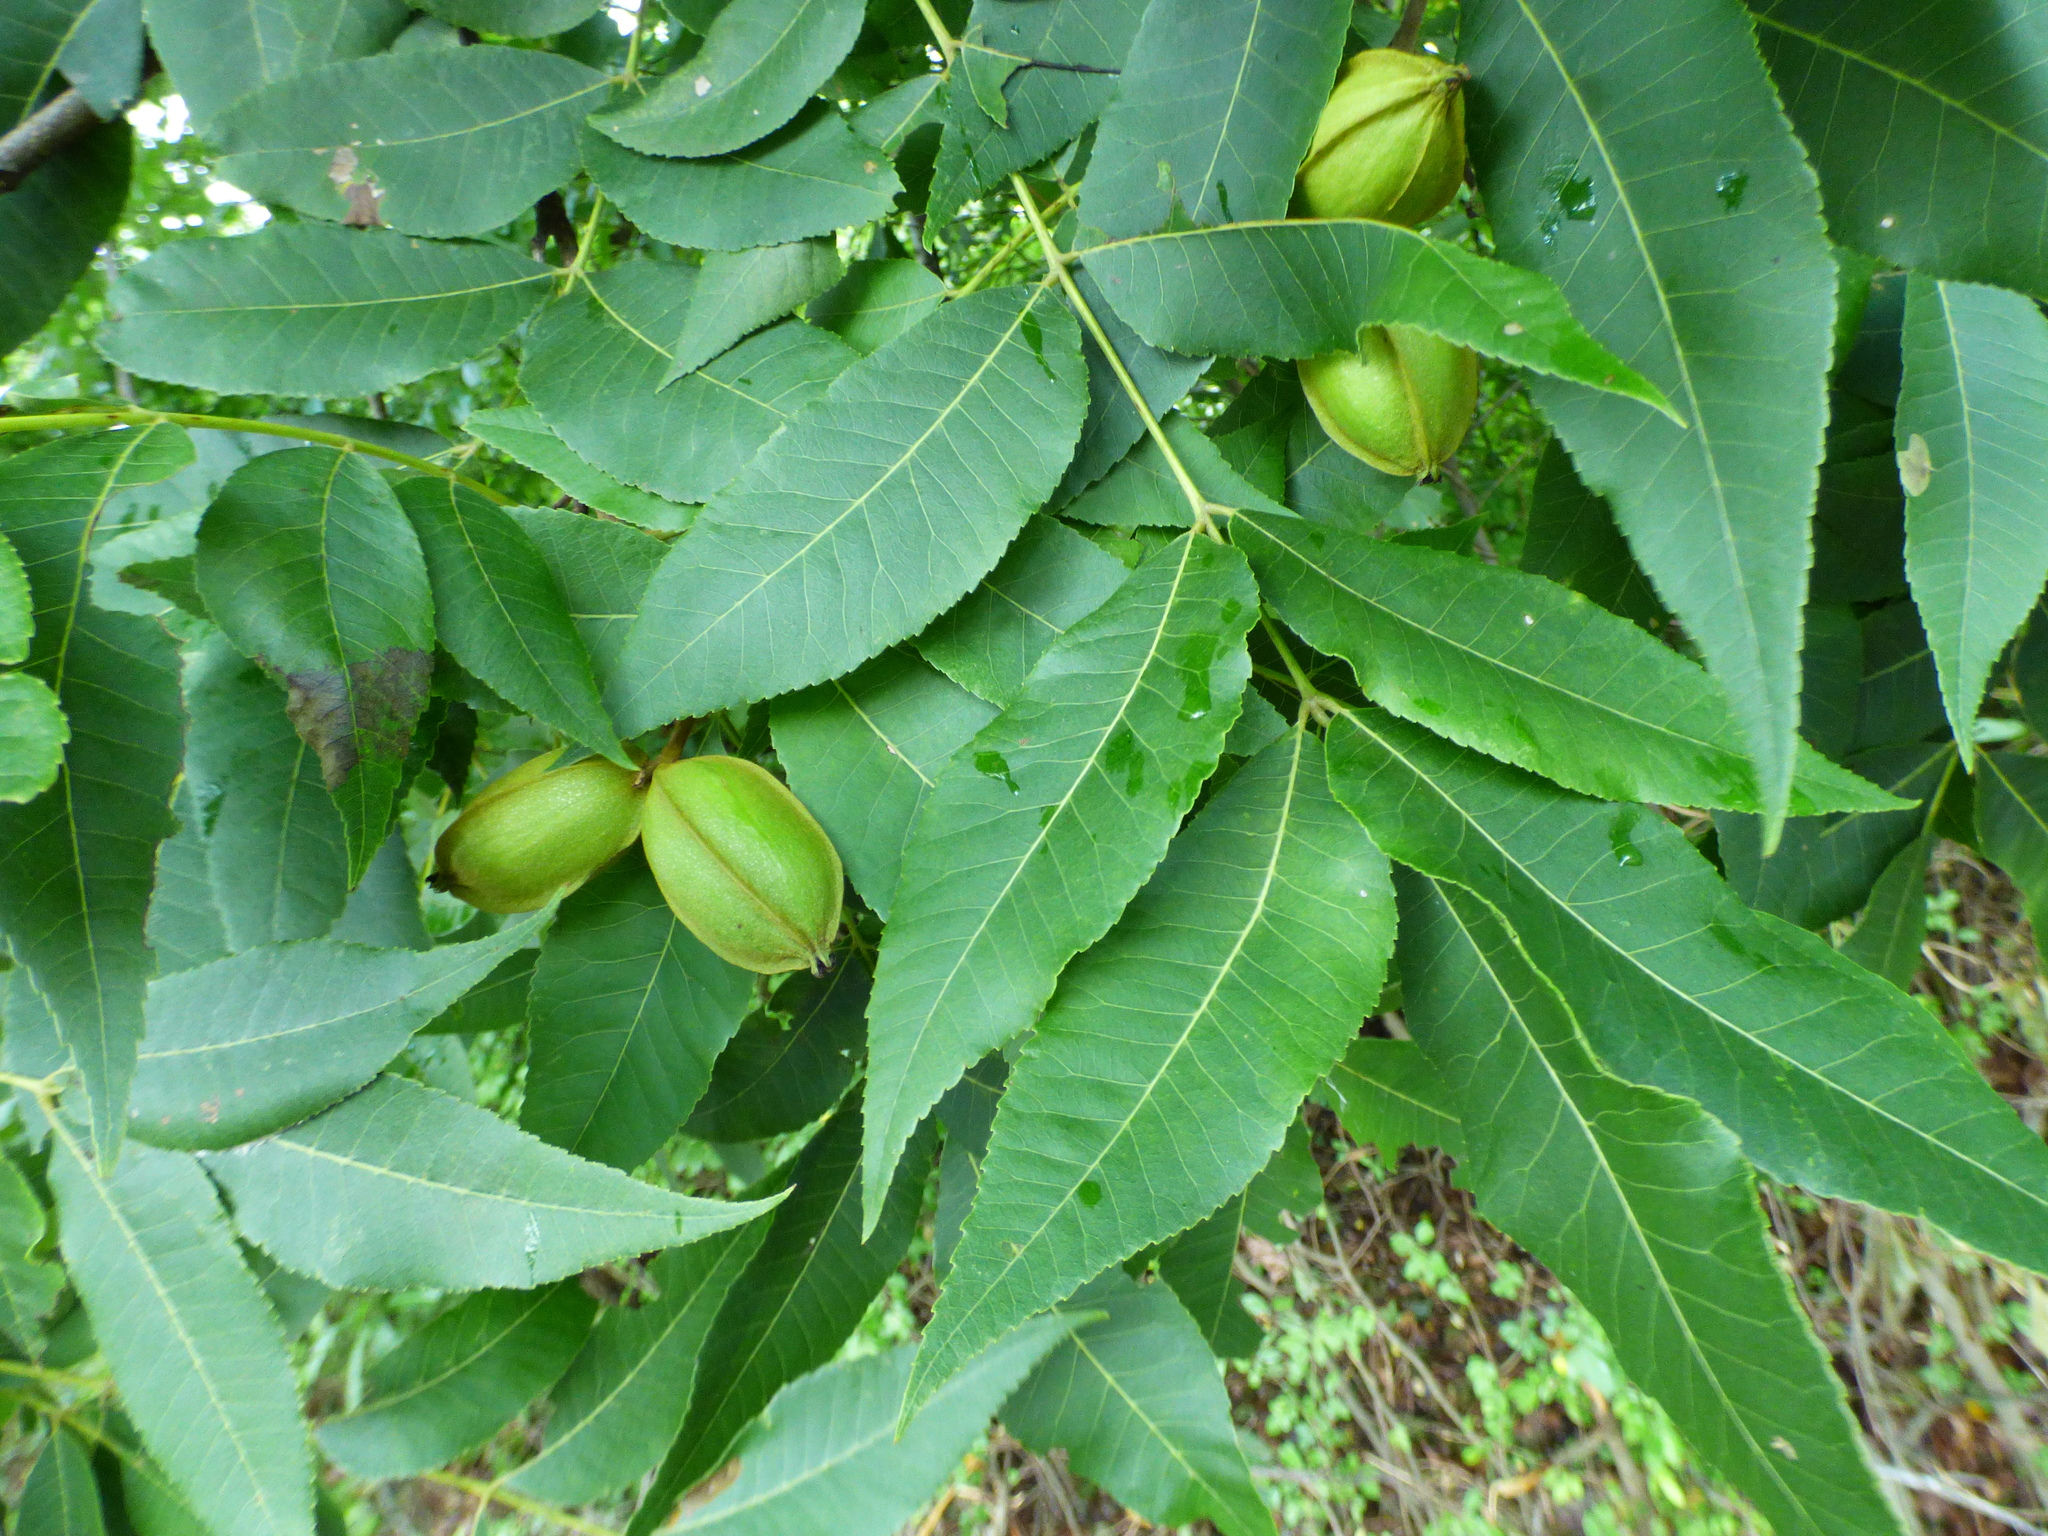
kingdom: Plantae
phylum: Tracheophyta
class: Magnoliopsida
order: Fagales
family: Juglandaceae
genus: Carya
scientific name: Carya illinoinensis
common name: Pecan
